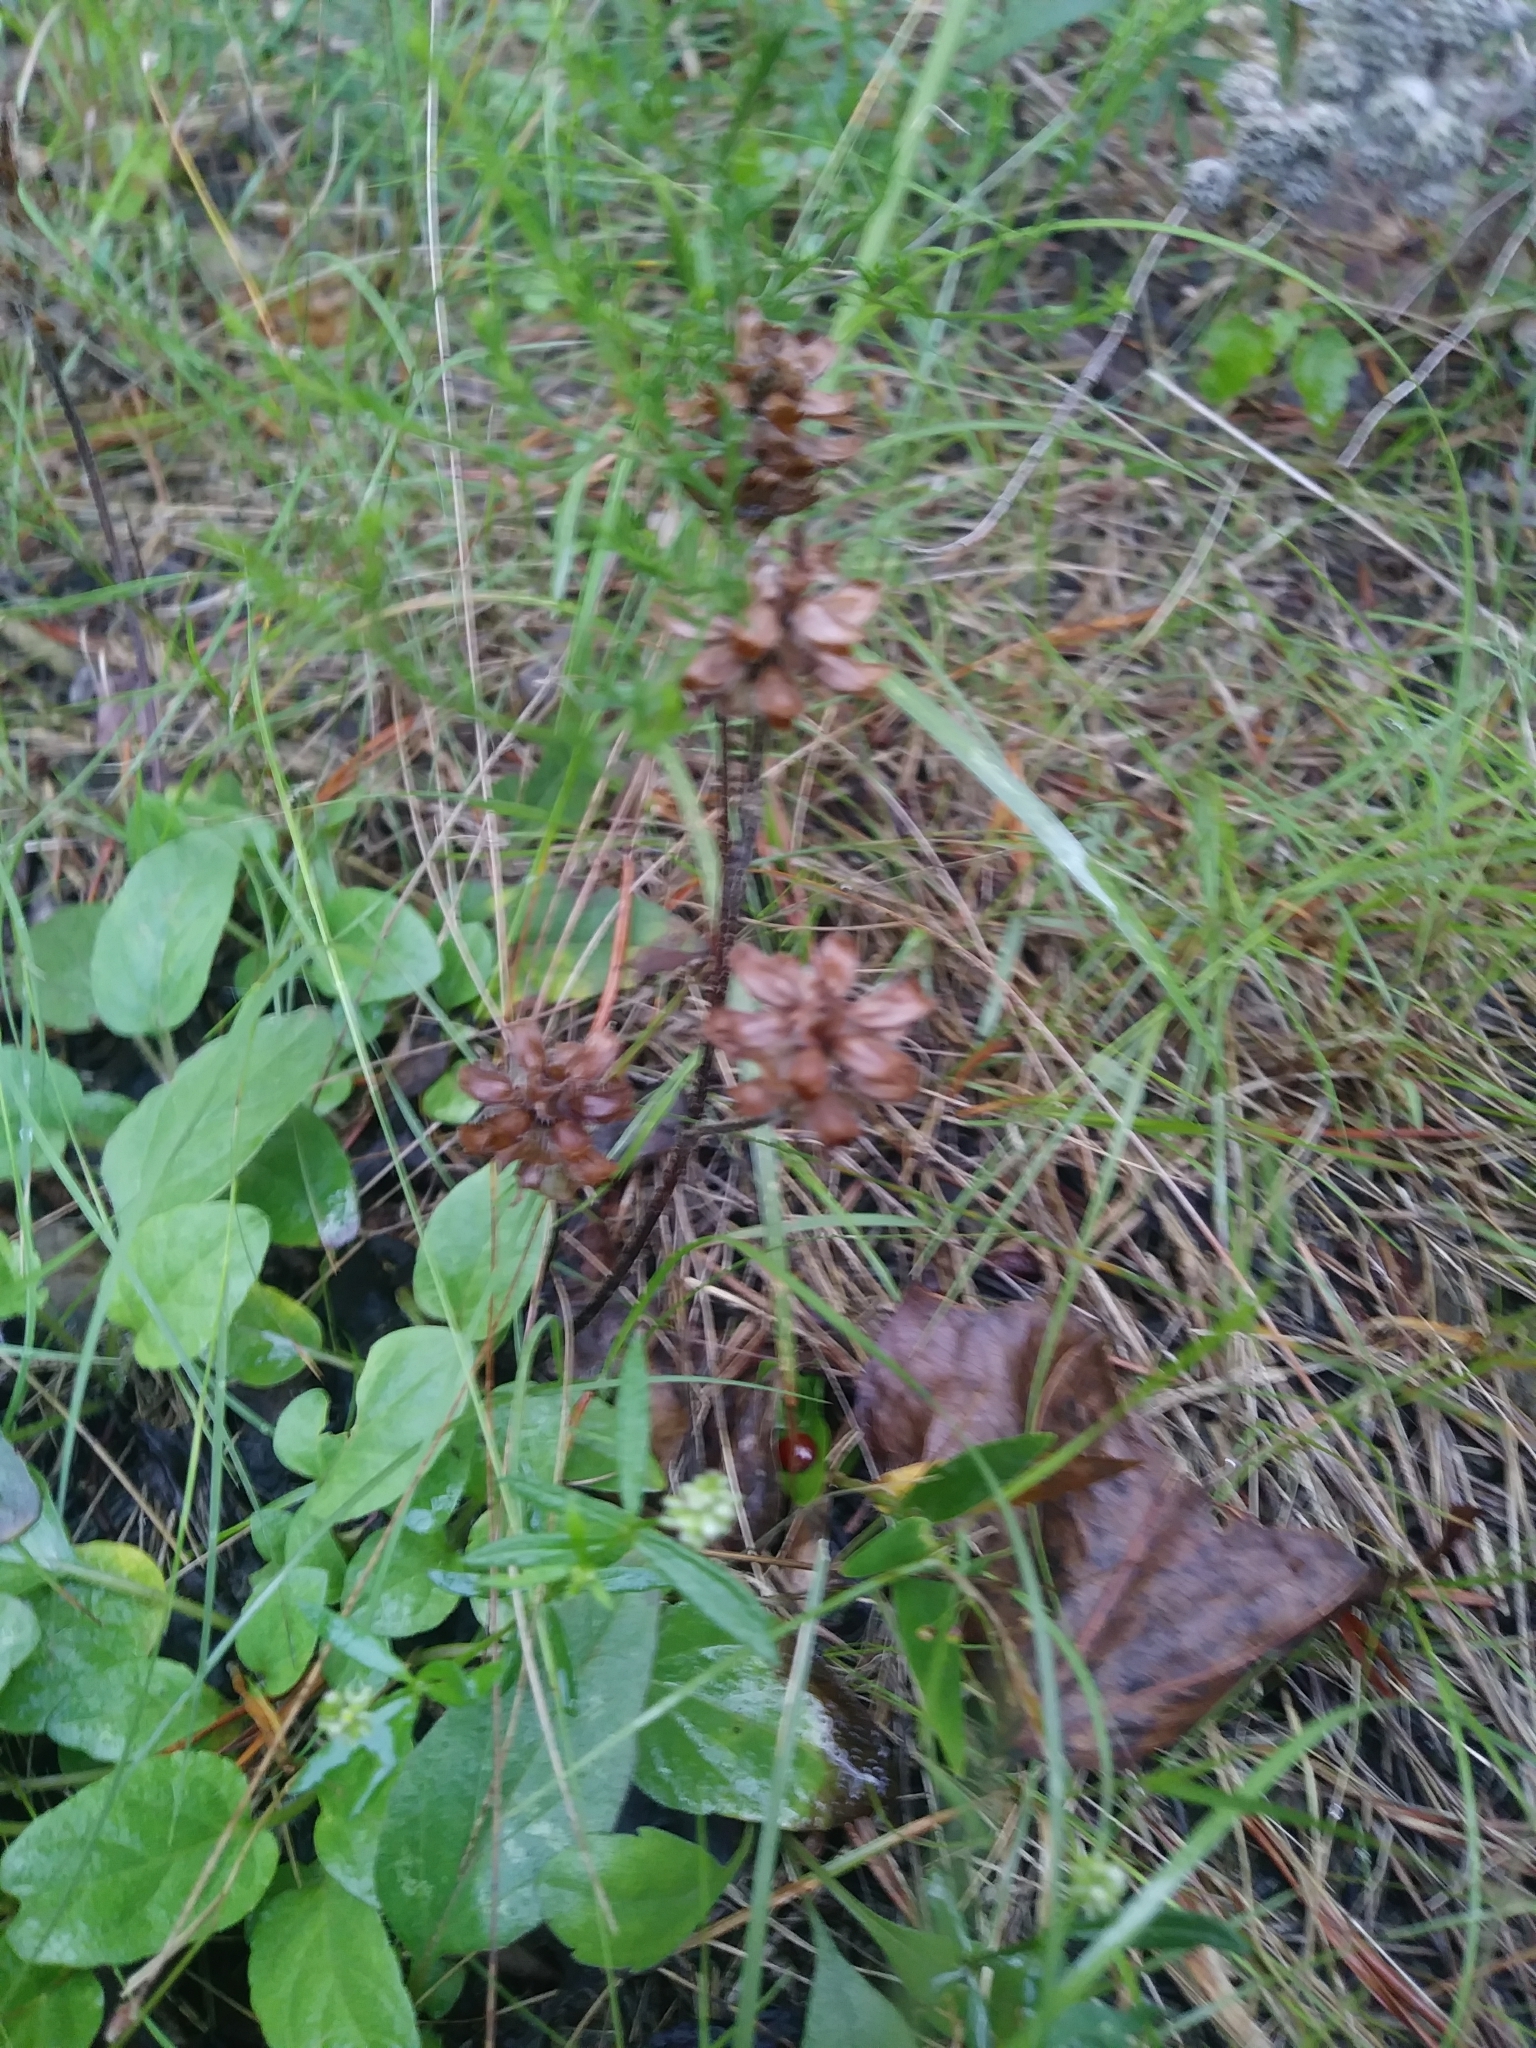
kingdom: Plantae
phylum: Tracheophyta
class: Magnoliopsida
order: Fabales
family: Polygalaceae
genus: Polygala
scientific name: Polygala verticillata
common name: Whorl milkwort
